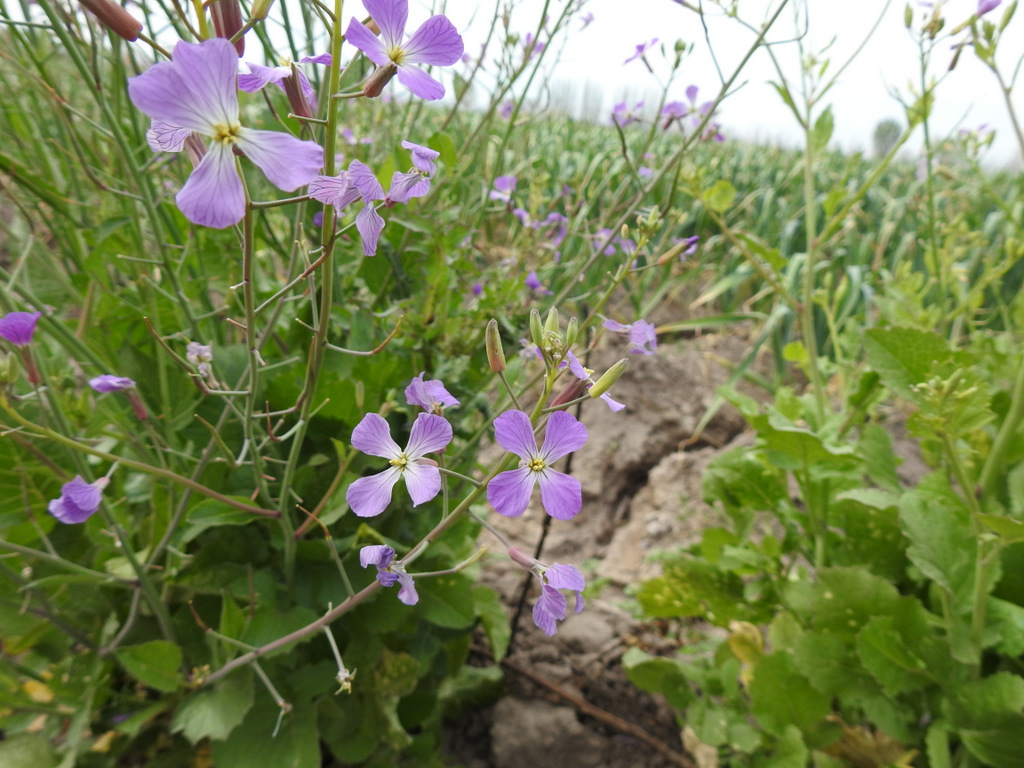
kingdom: Plantae
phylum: Tracheophyta
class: Magnoliopsida
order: Brassicales
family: Brassicaceae
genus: Raphanus
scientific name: Raphanus sativus
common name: Cultivated radish
